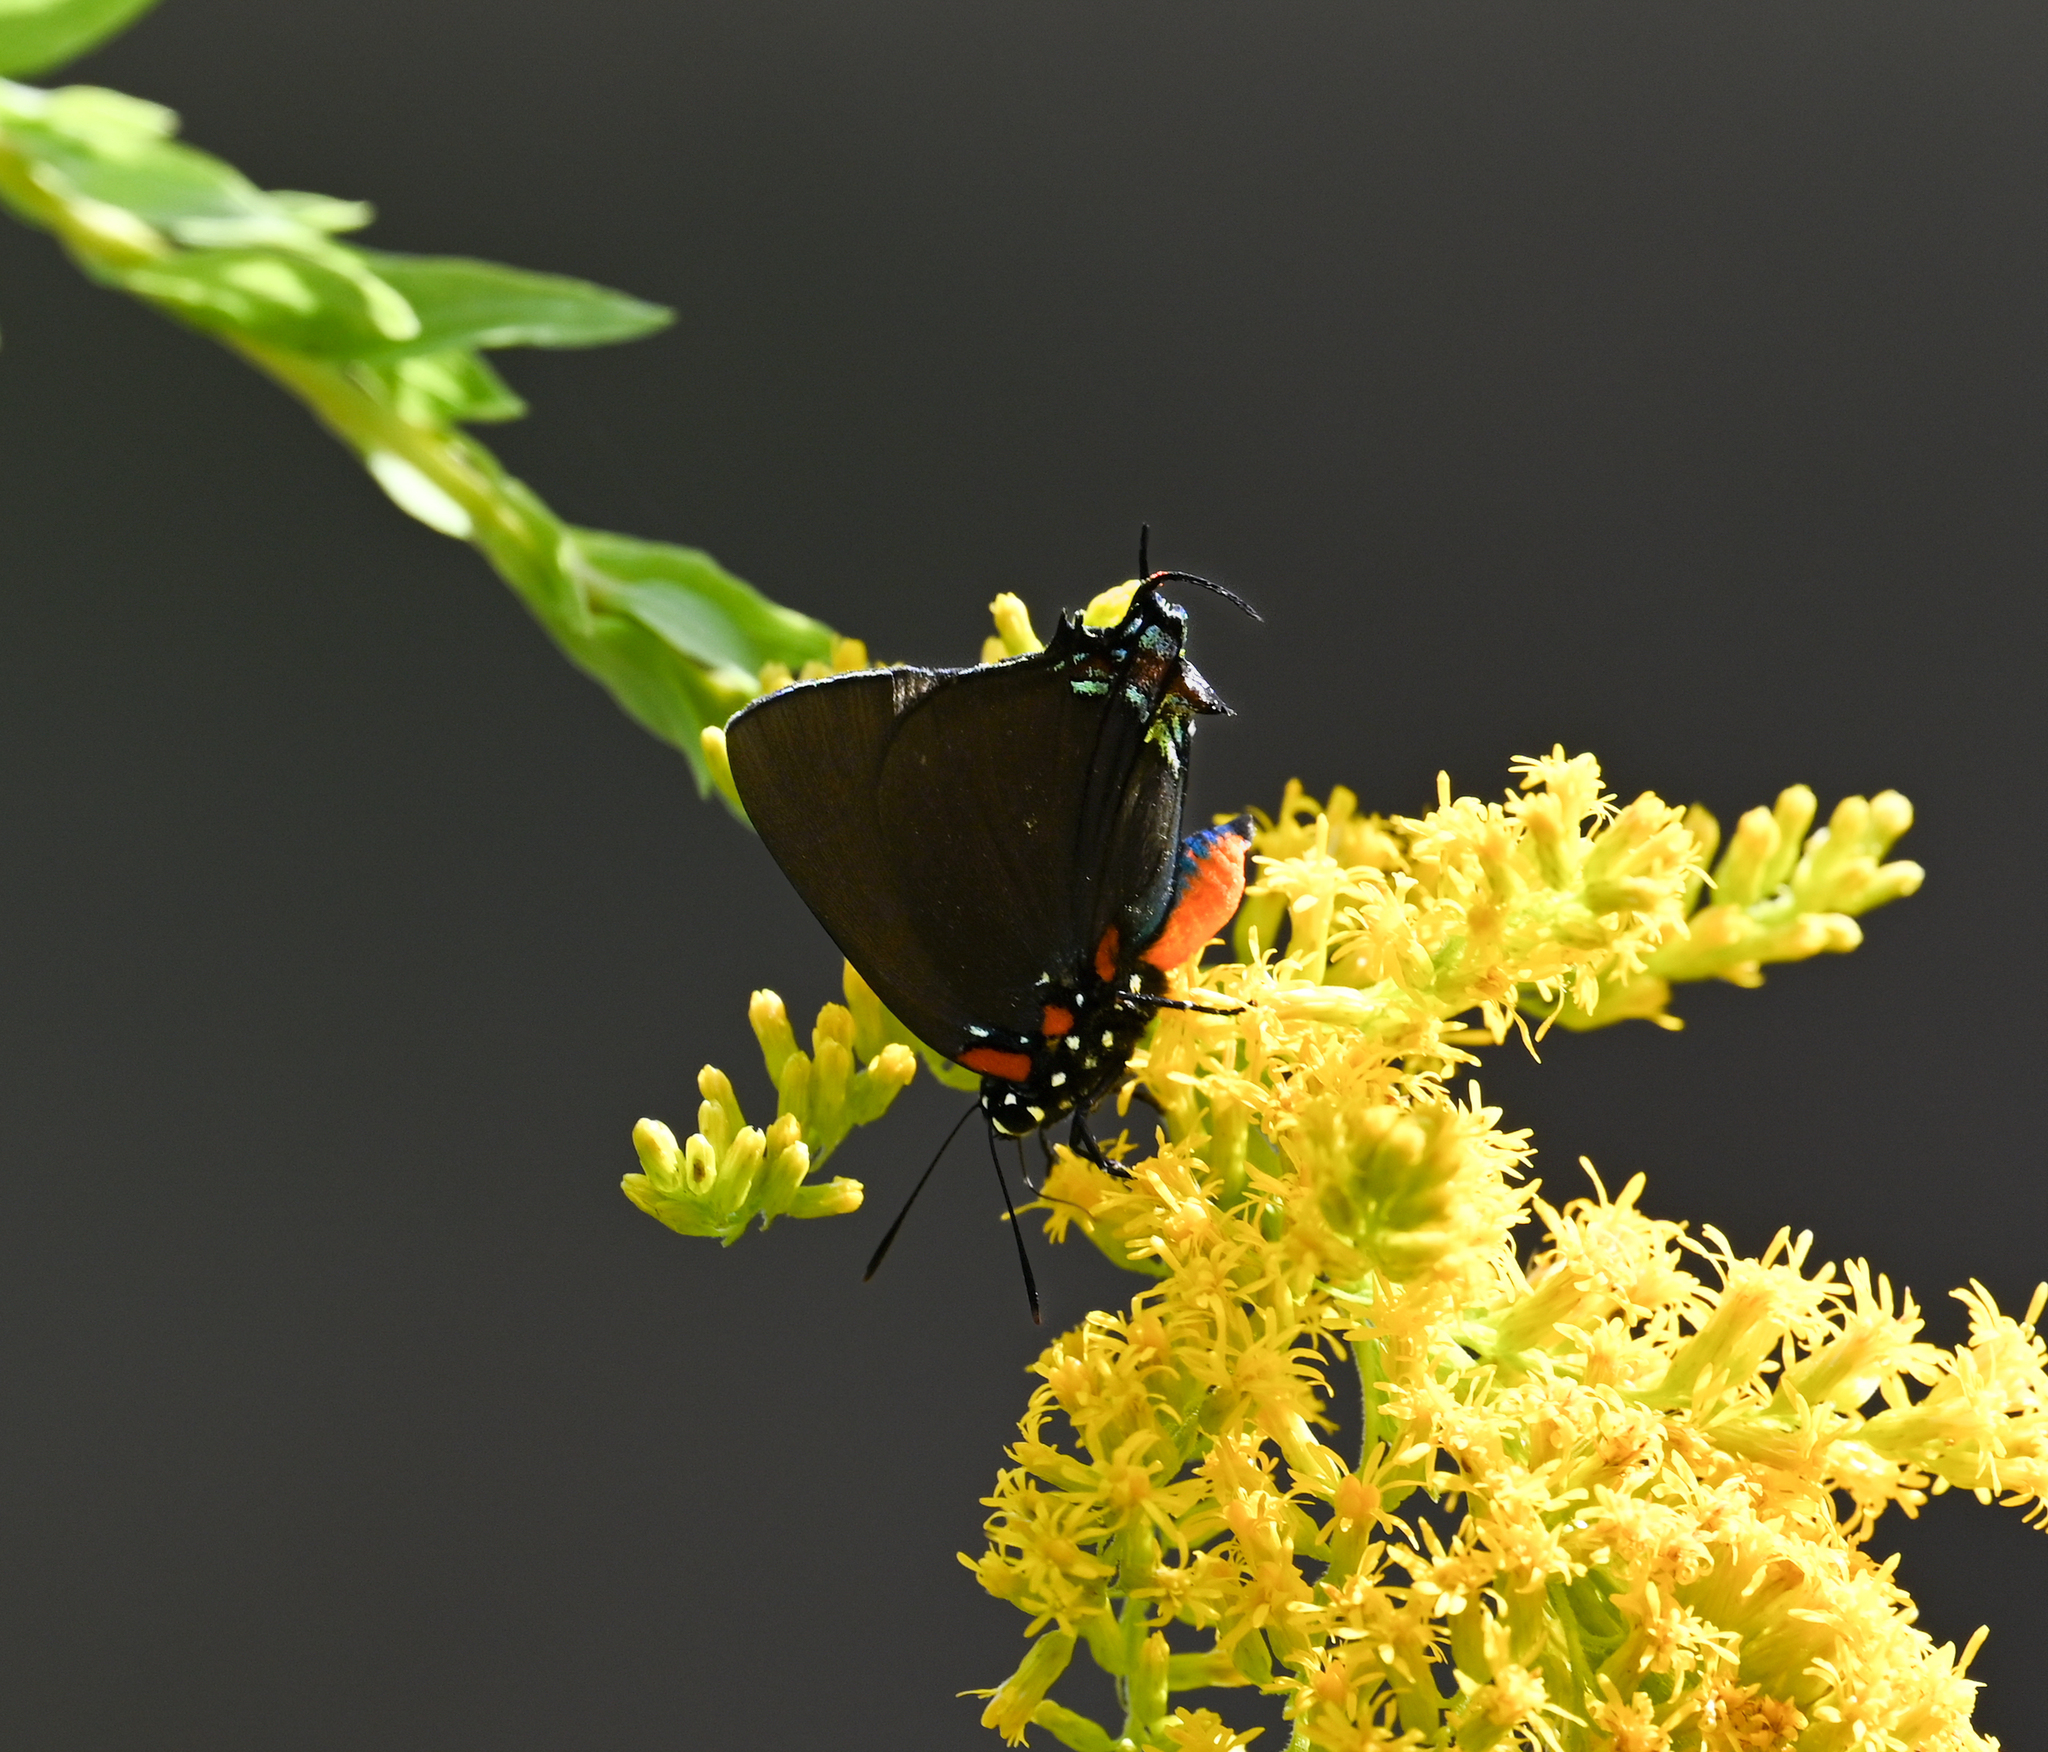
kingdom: Animalia
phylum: Arthropoda
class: Insecta
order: Lepidoptera
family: Lycaenidae
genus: Atlides
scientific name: Atlides halesus
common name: Great purple hairstreak
